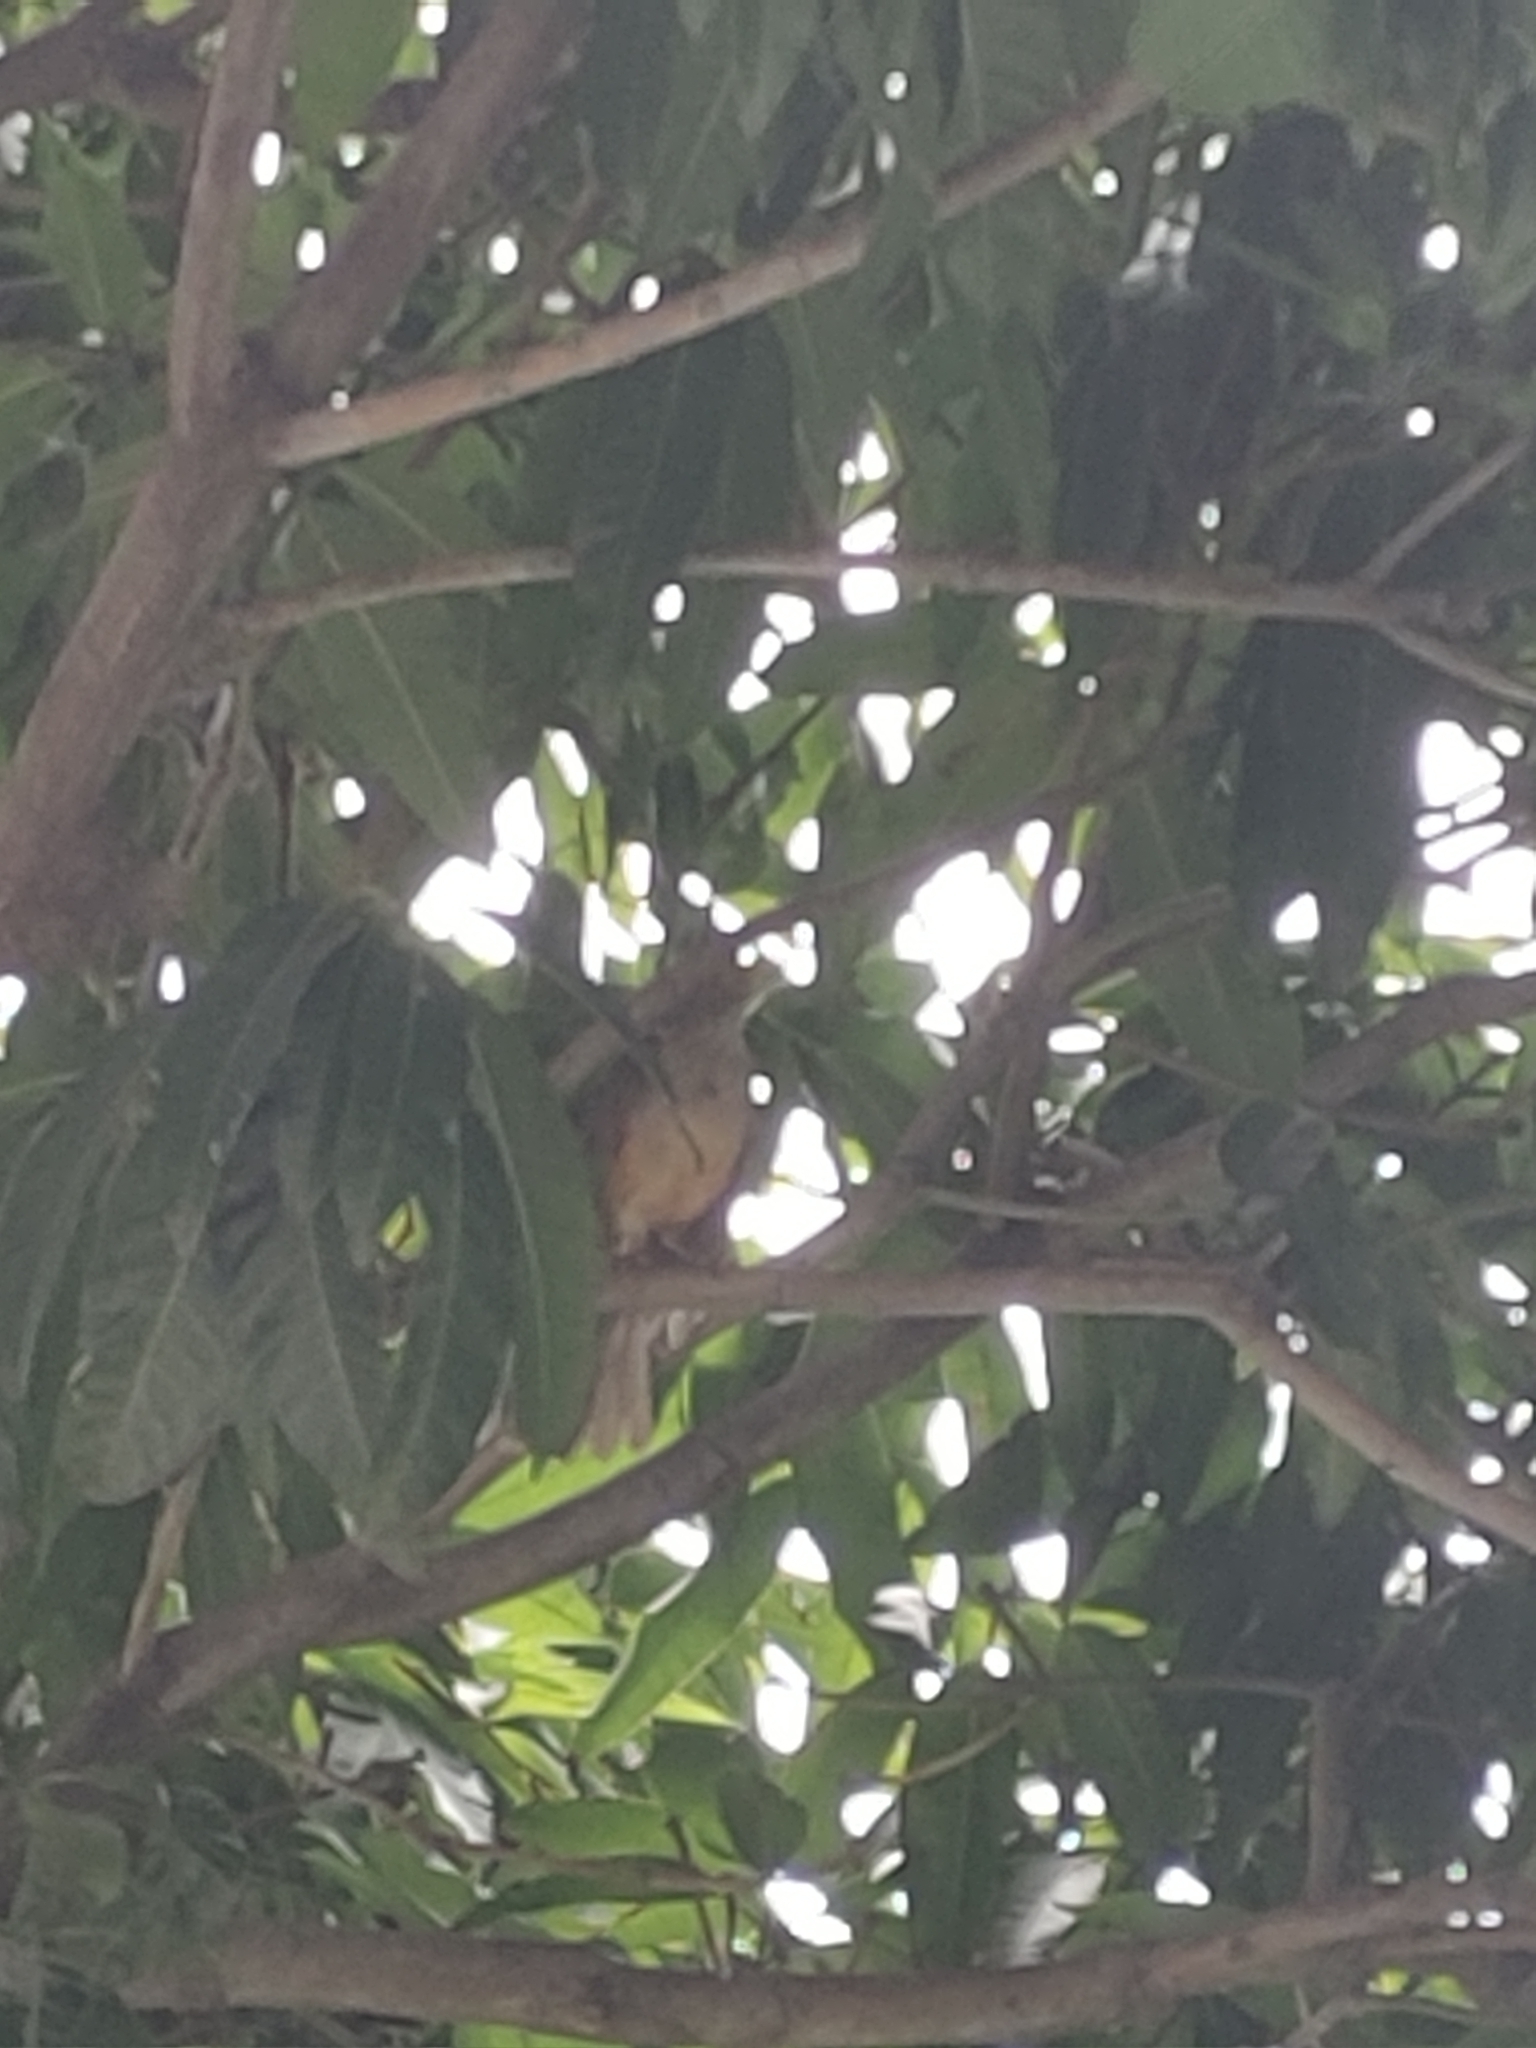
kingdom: Animalia
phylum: Chordata
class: Aves
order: Passeriformes
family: Turdidae
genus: Turdus
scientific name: Turdus rufiventris
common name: Rufous-bellied thrush
